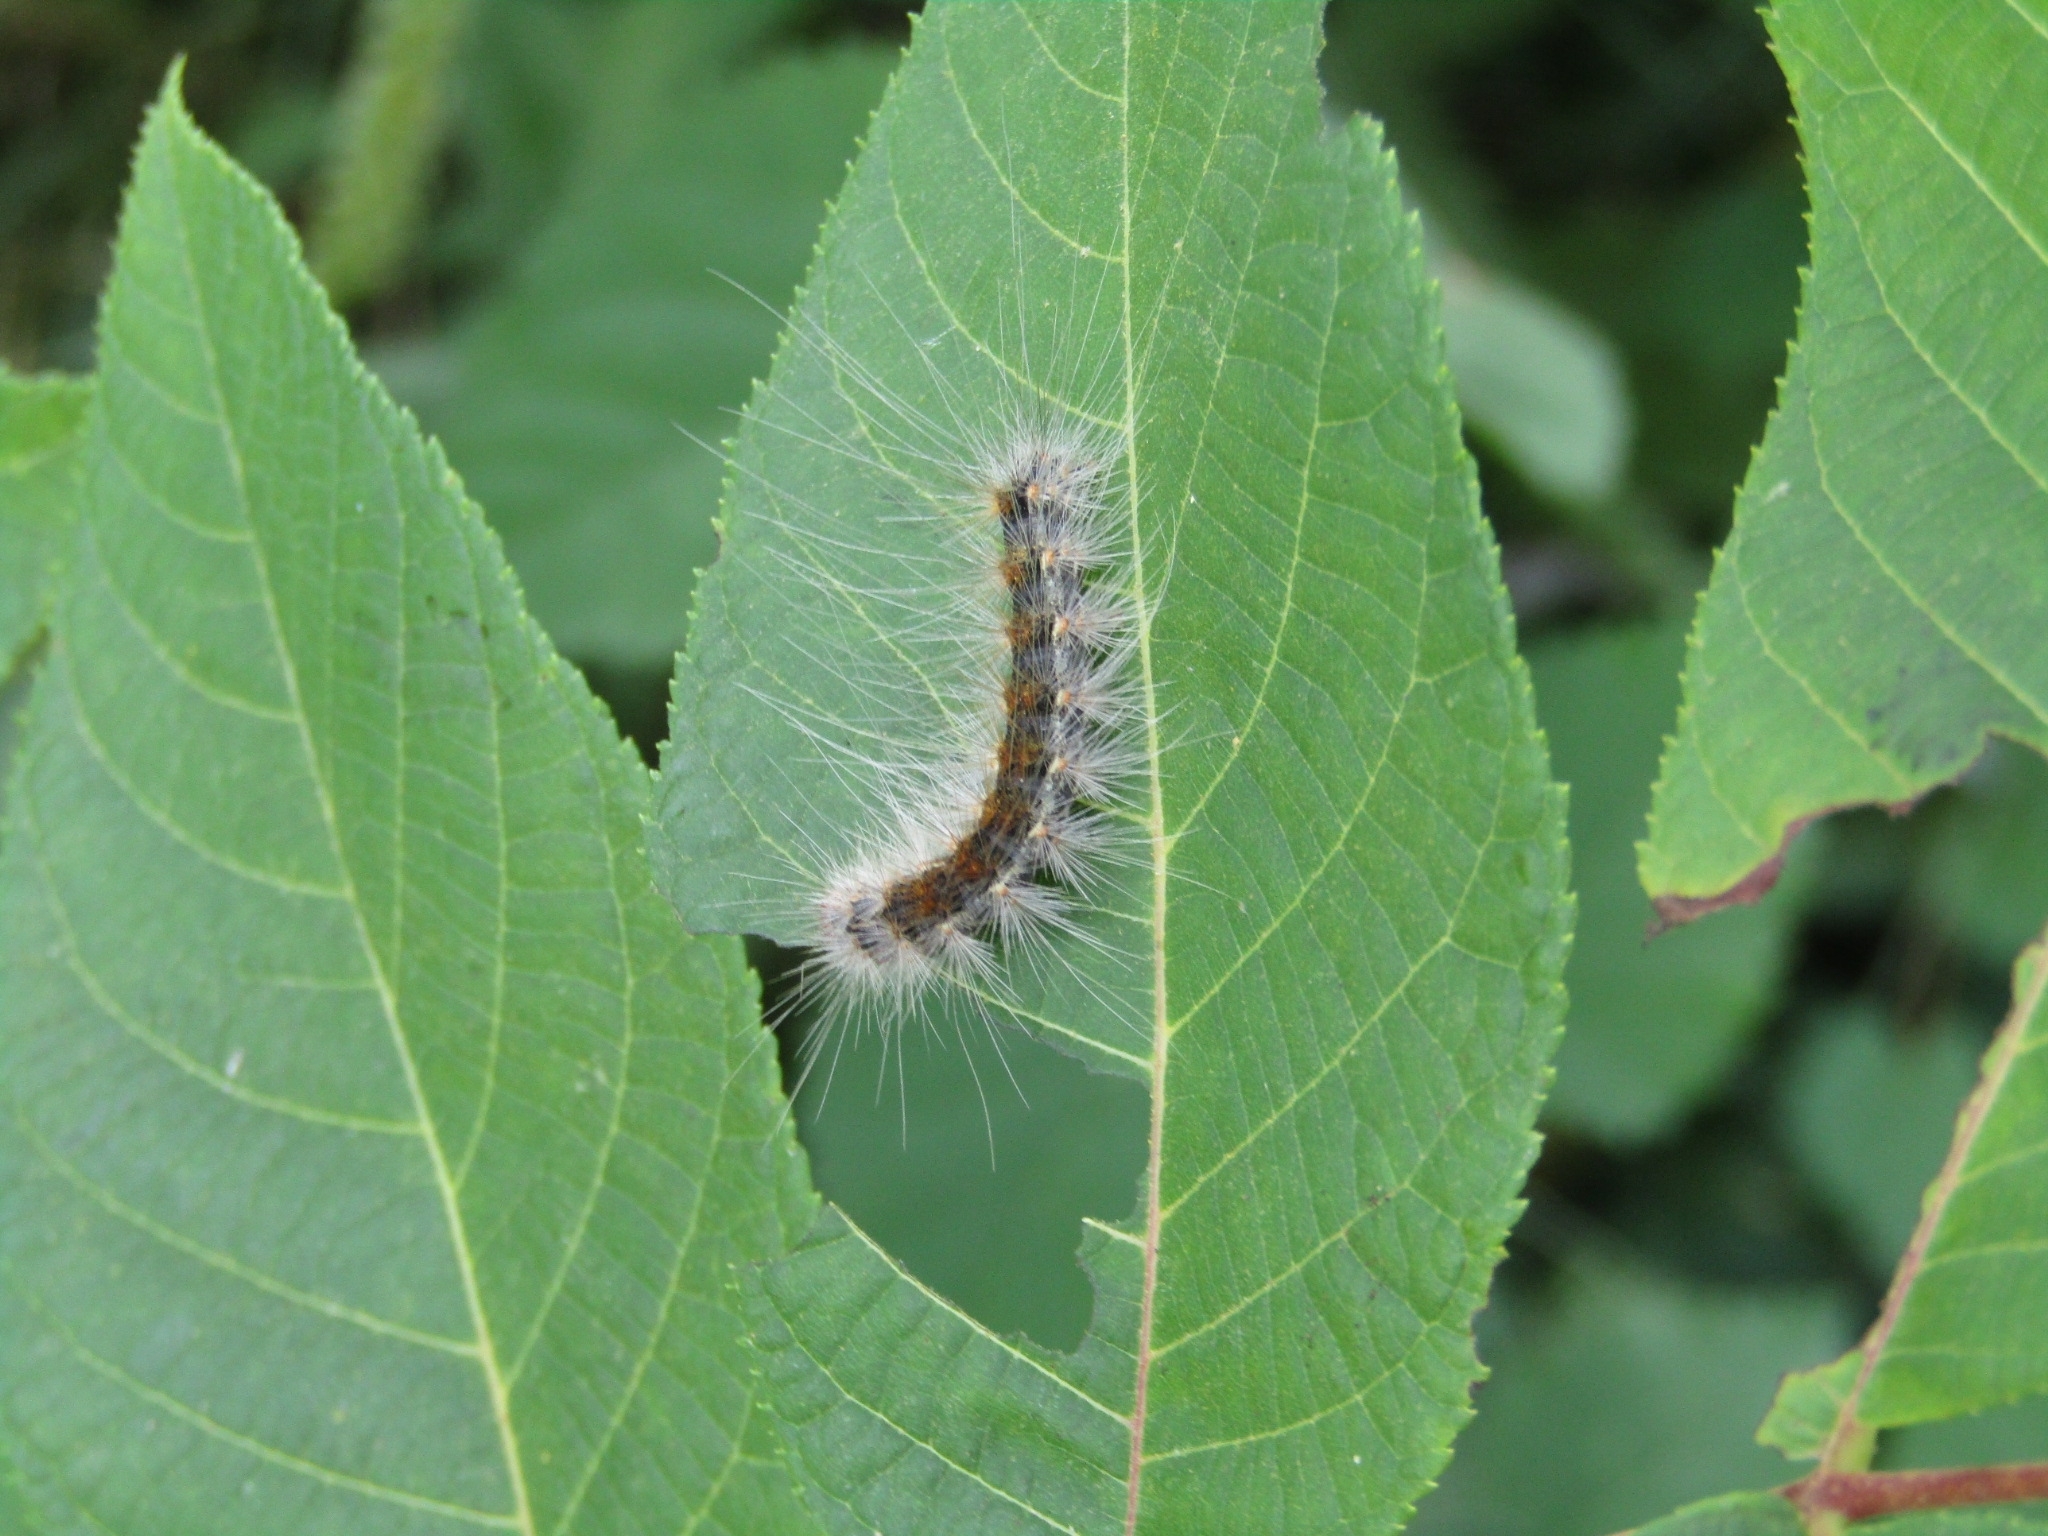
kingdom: Animalia
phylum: Arthropoda
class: Insecta
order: Lepidoptera
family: Erebidae
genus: Hyphantria
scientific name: Hyphantria cunea
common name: American white moth
